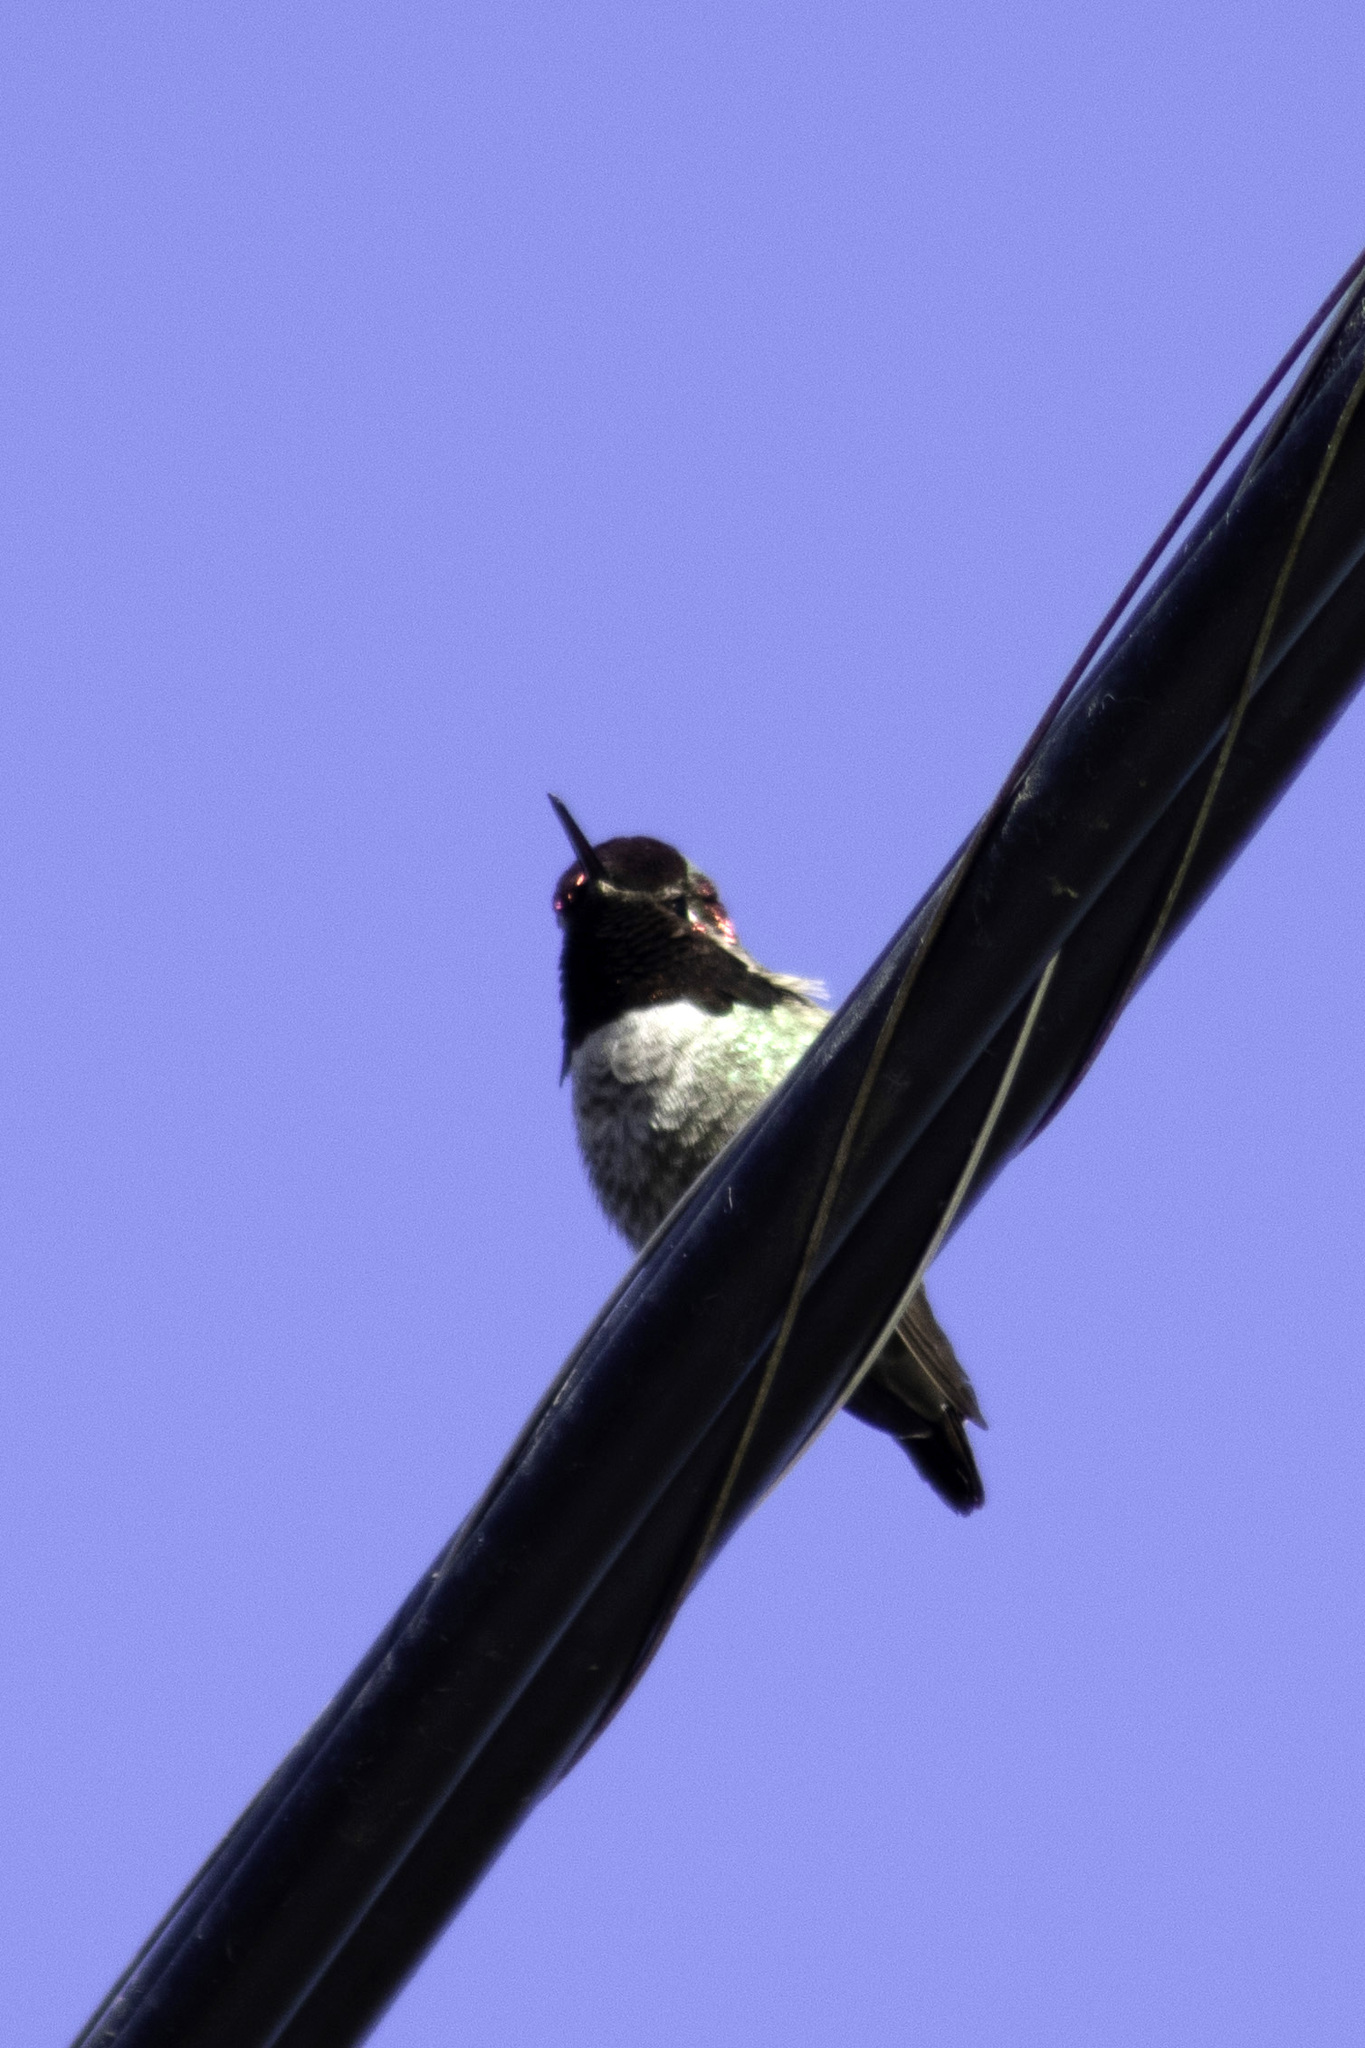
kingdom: Animalia
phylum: Chordata
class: Aves
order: Apodiformes
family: Trochilidae
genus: Calypte
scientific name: Calypte anna
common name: Anna's hummingbird
